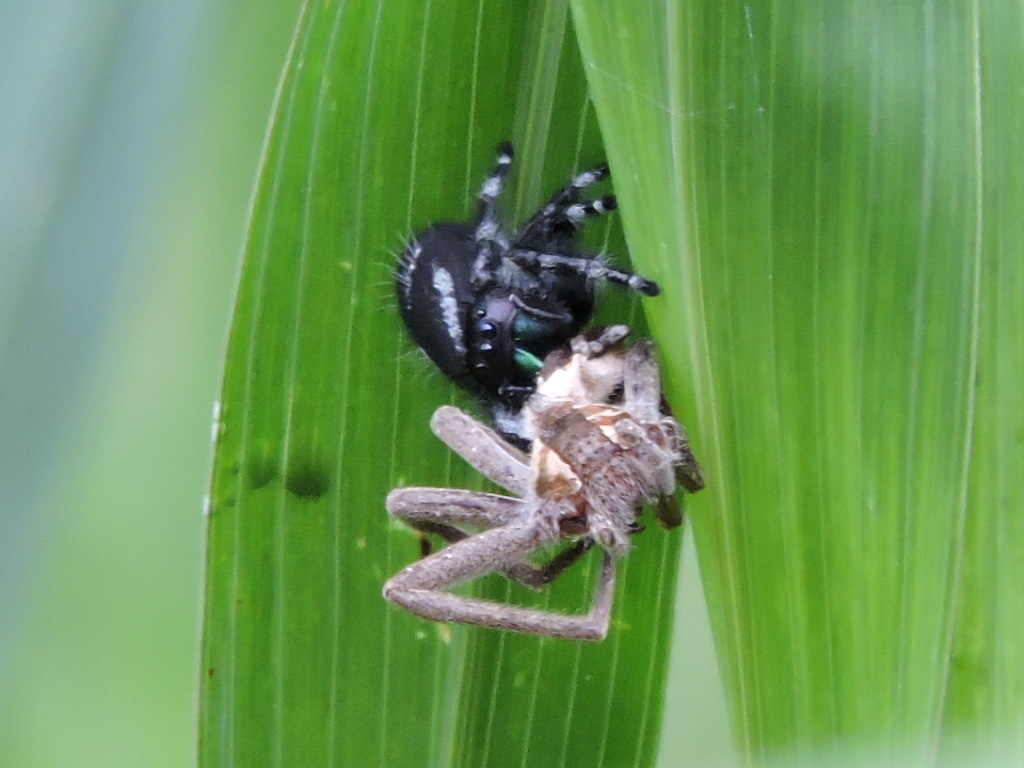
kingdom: Animalia
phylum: Arthropoda
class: Arachnida
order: Araneae
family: Salticidae
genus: Phidippus
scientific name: Phidippus audax
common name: Bold jumper
